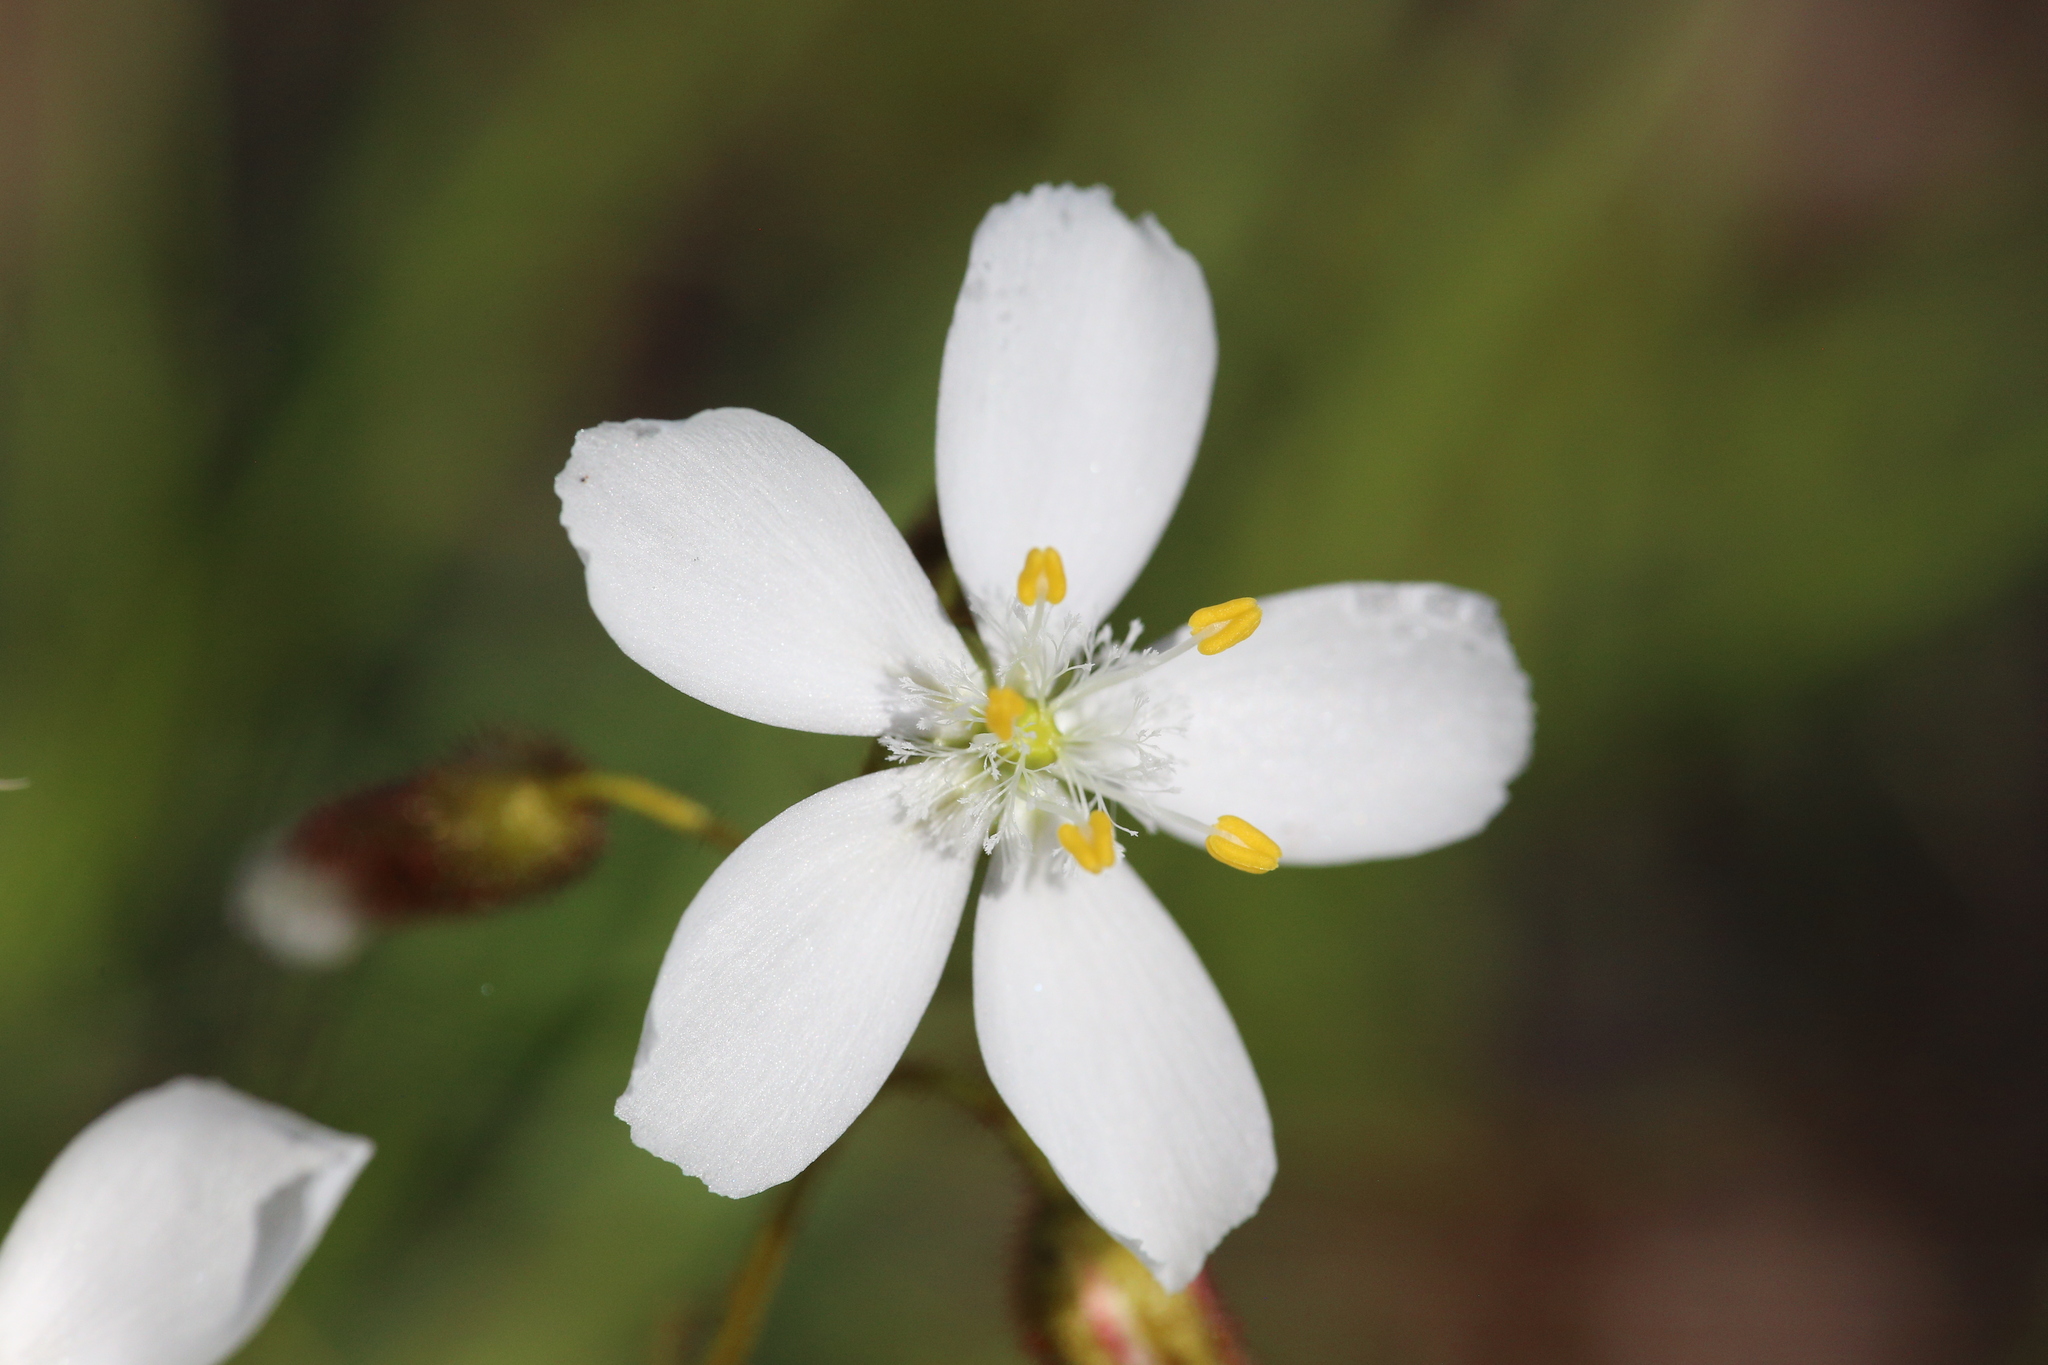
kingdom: Plantae
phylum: Tracheophyta
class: Magnoliopsida
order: Caryophyllales
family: Droseraceae
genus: Drosera
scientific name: Drosera macrantha
